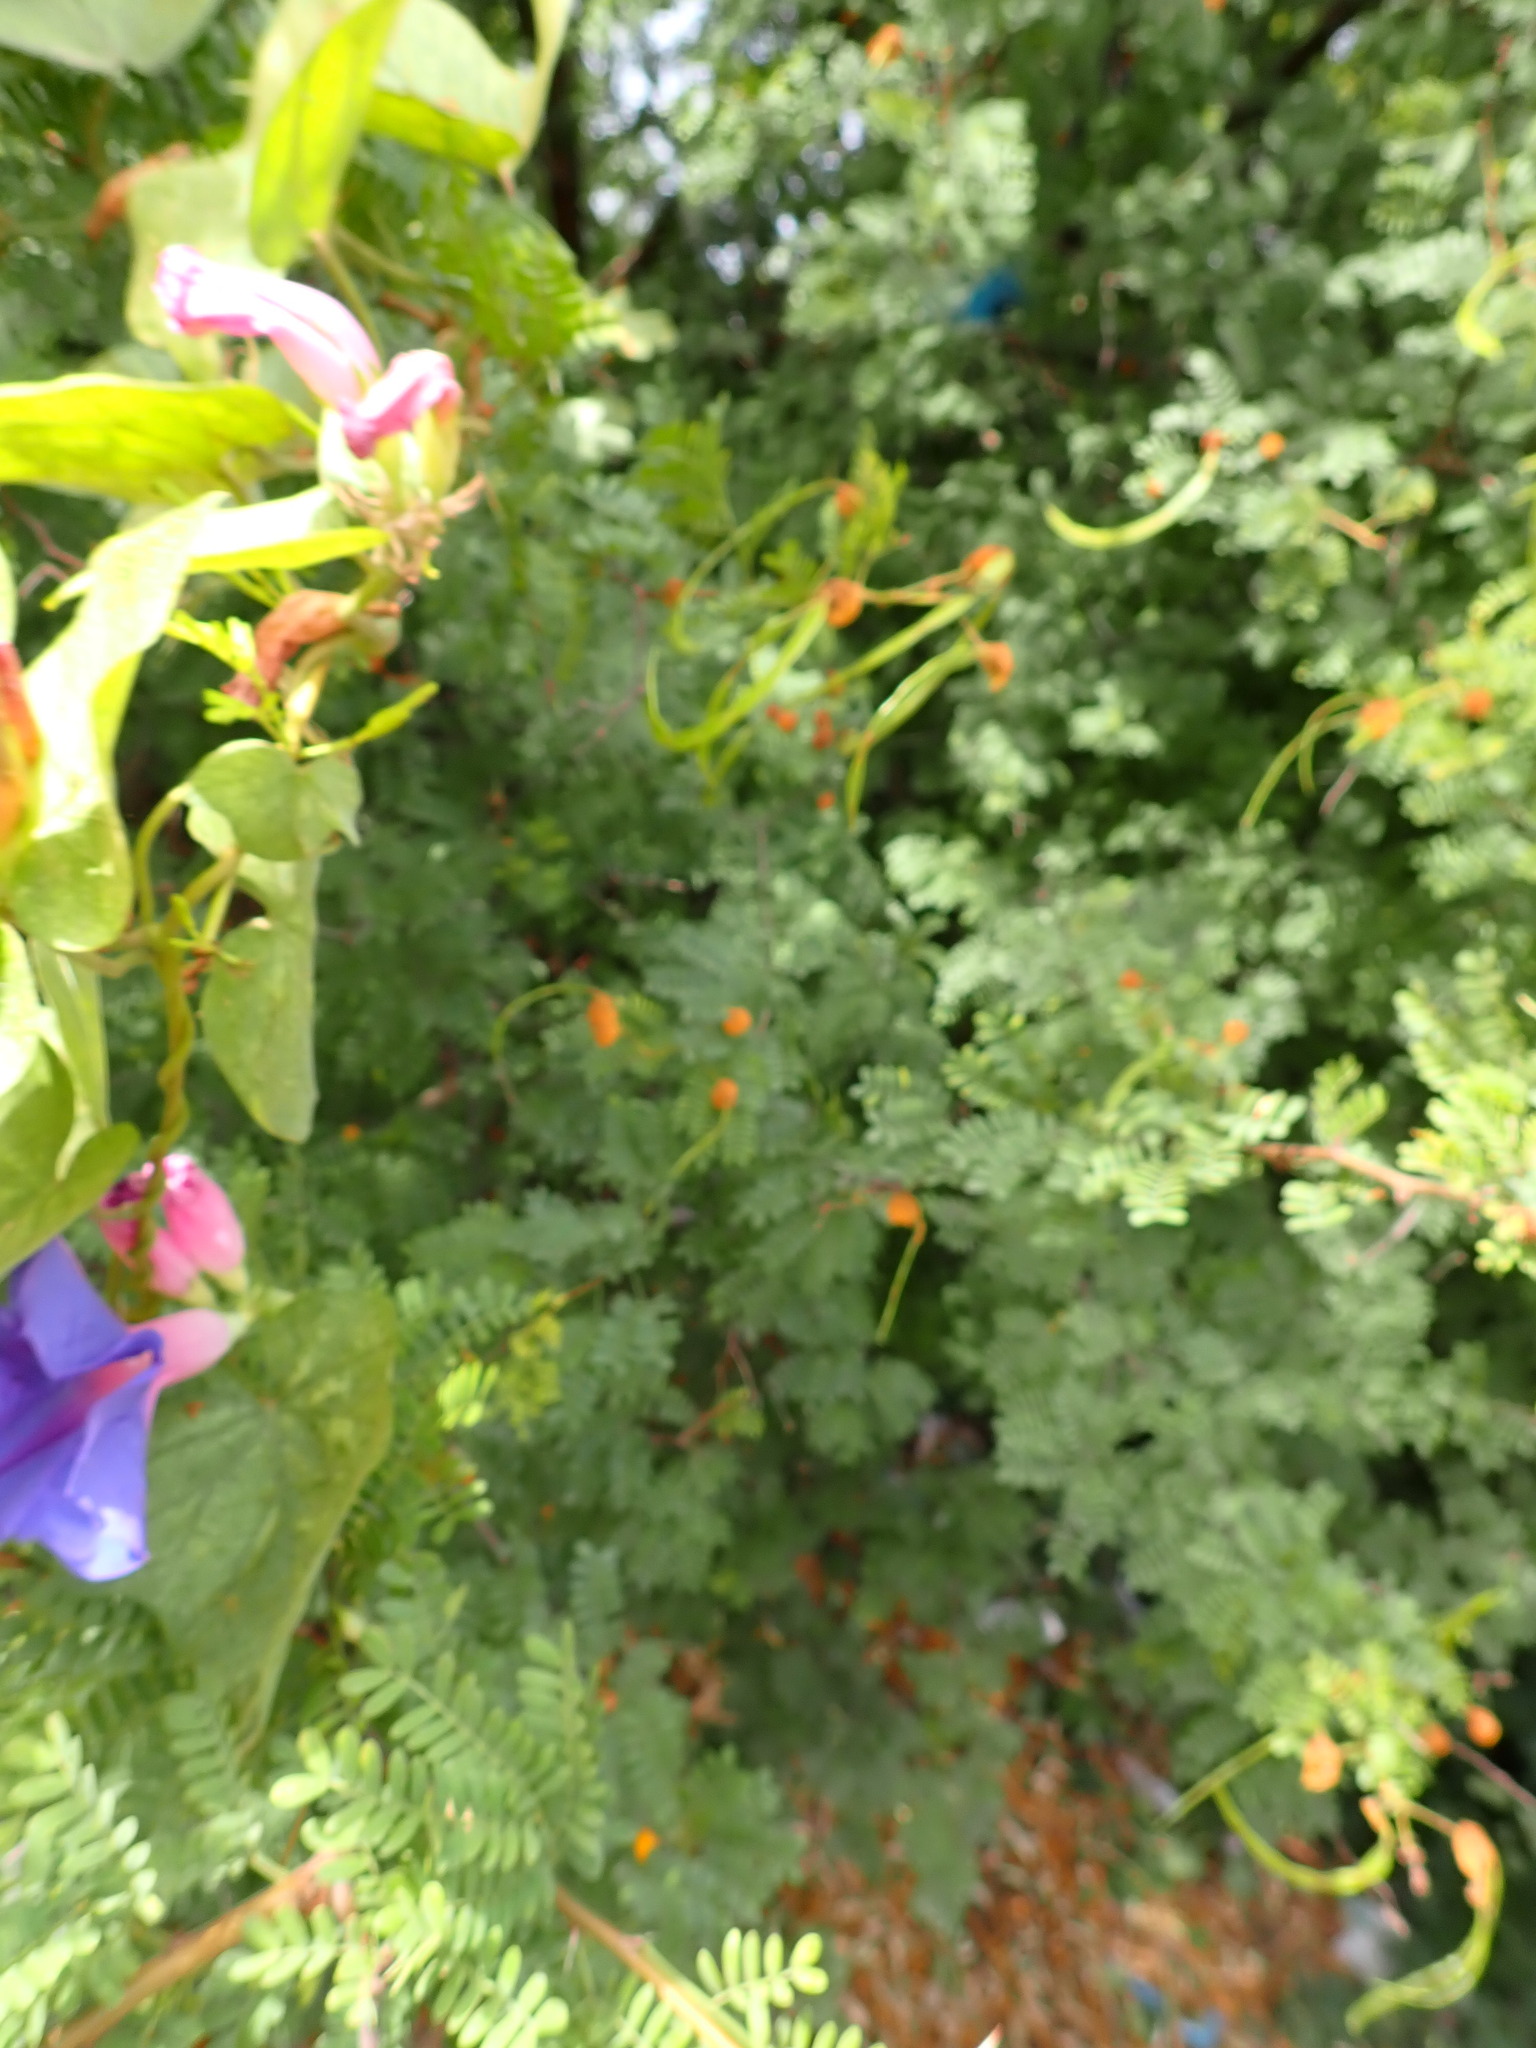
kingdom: Plantae
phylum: Tracheophyta
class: Magnoliopsida
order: Solanales
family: Convolvulaceae
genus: Ipomoea
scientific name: Ipomoea indica
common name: Blue dawnflower
